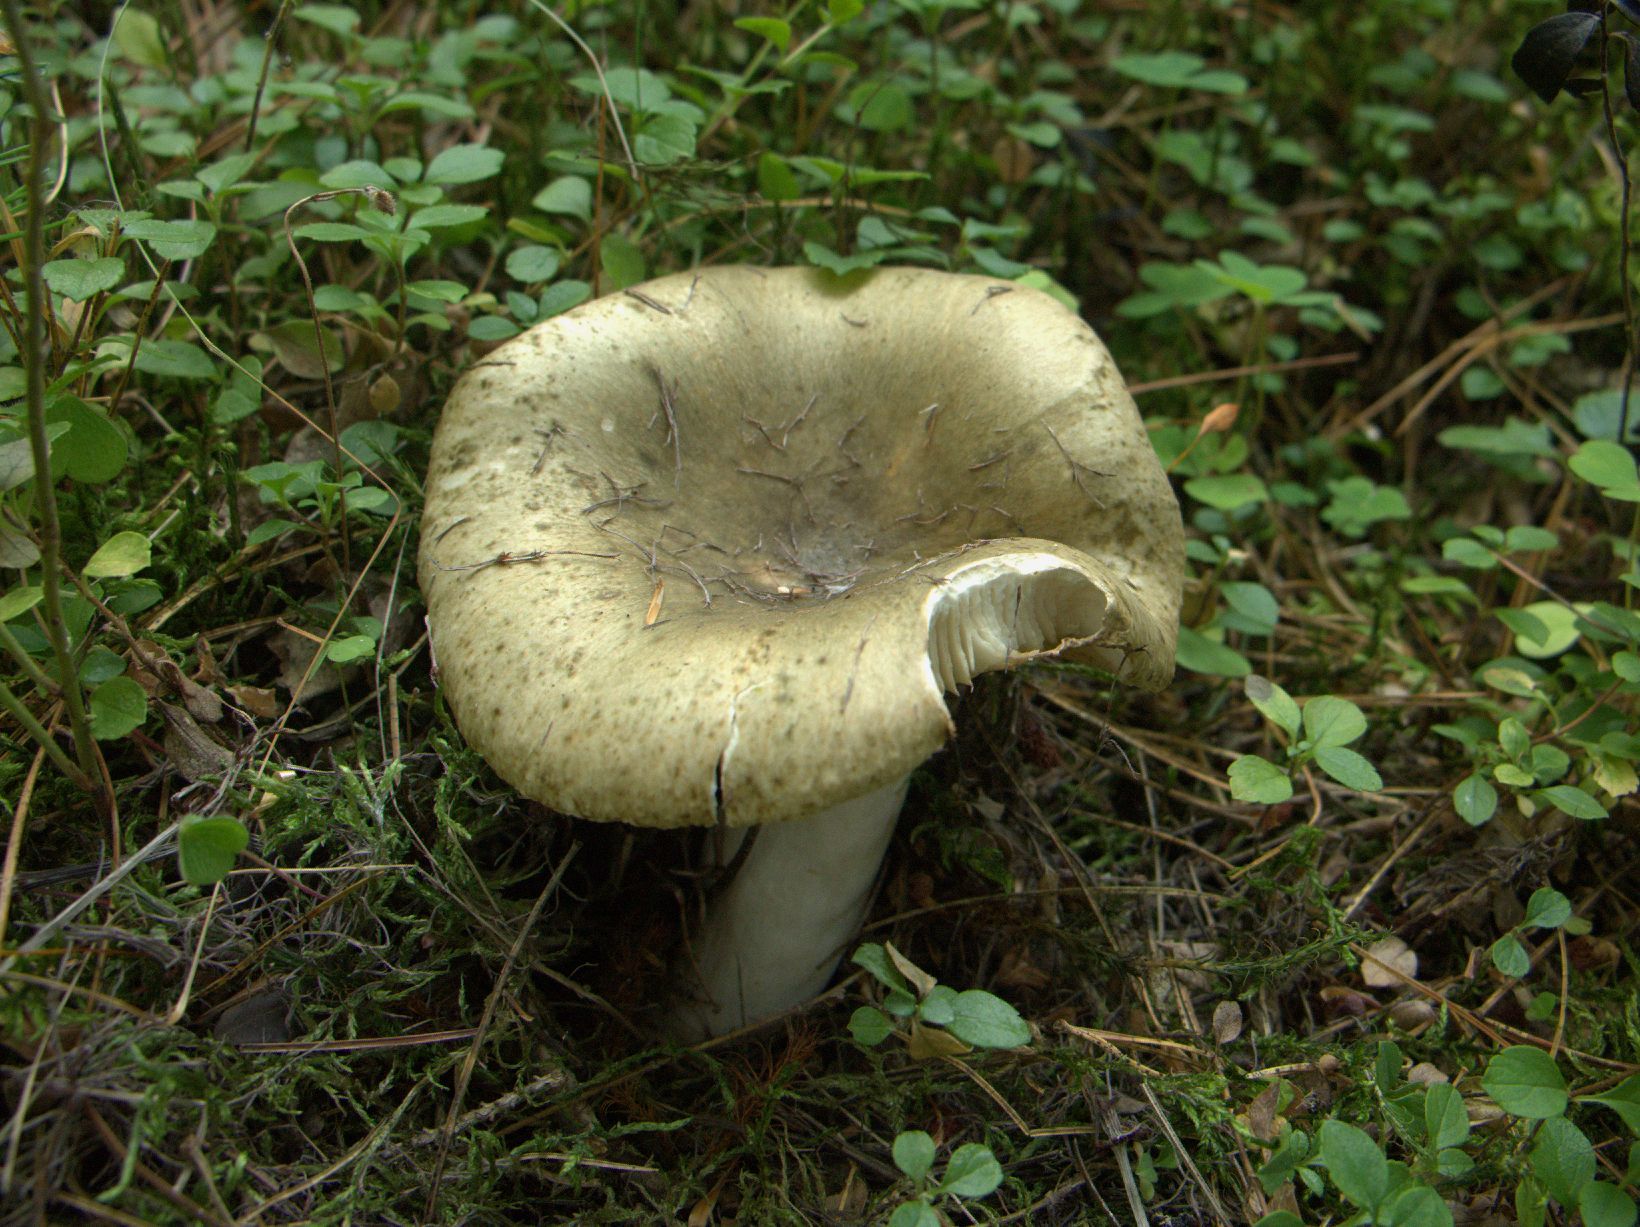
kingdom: Fungi
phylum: Basidiomycota
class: Agaricomycetes
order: Russulales
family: Russulaceae
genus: Russula
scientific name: Russula heterophylla
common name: Greasy green brittlegill
